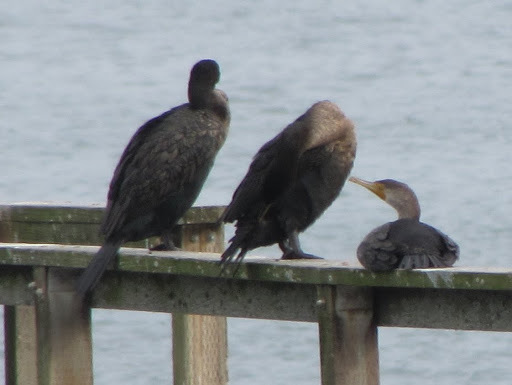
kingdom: Animalia
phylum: Chordata
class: Aves
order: Suliformes
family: Phalacrocoracidae
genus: Phalacrocorax
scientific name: Phalacrocorax auritus
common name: Double-crested cormorant
